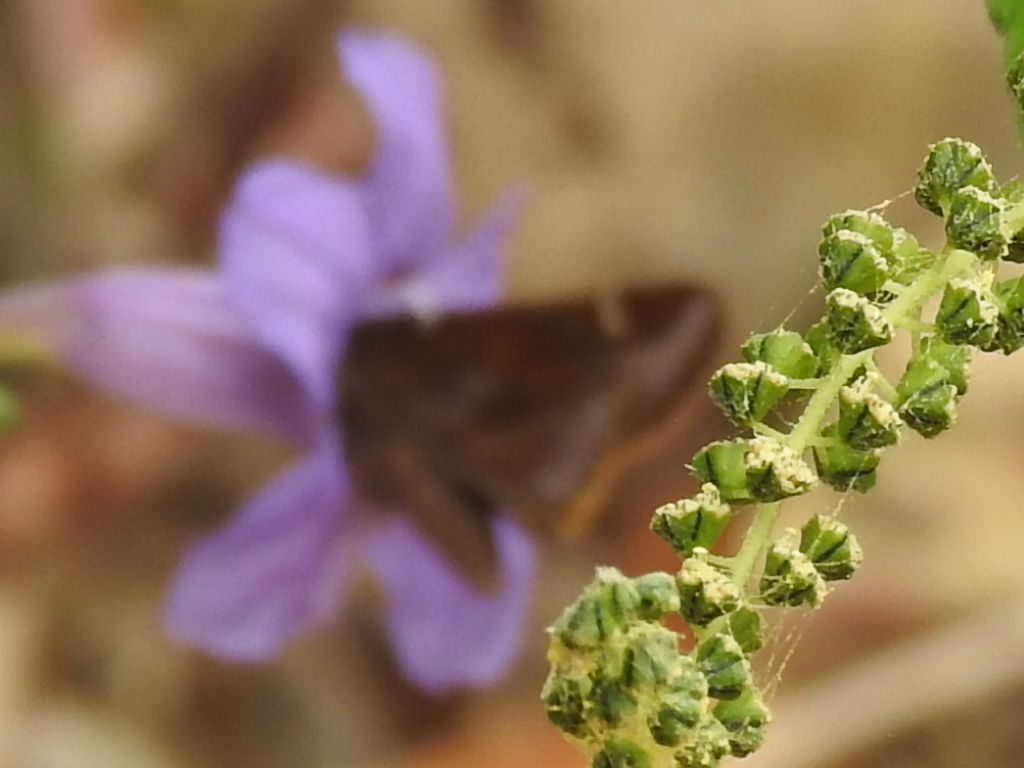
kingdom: Animalia
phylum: Arthropoda
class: Insecta
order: Lepidoptera
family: Hesperiidae
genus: Lerema
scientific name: Lerema accius
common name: Clouded skipper
